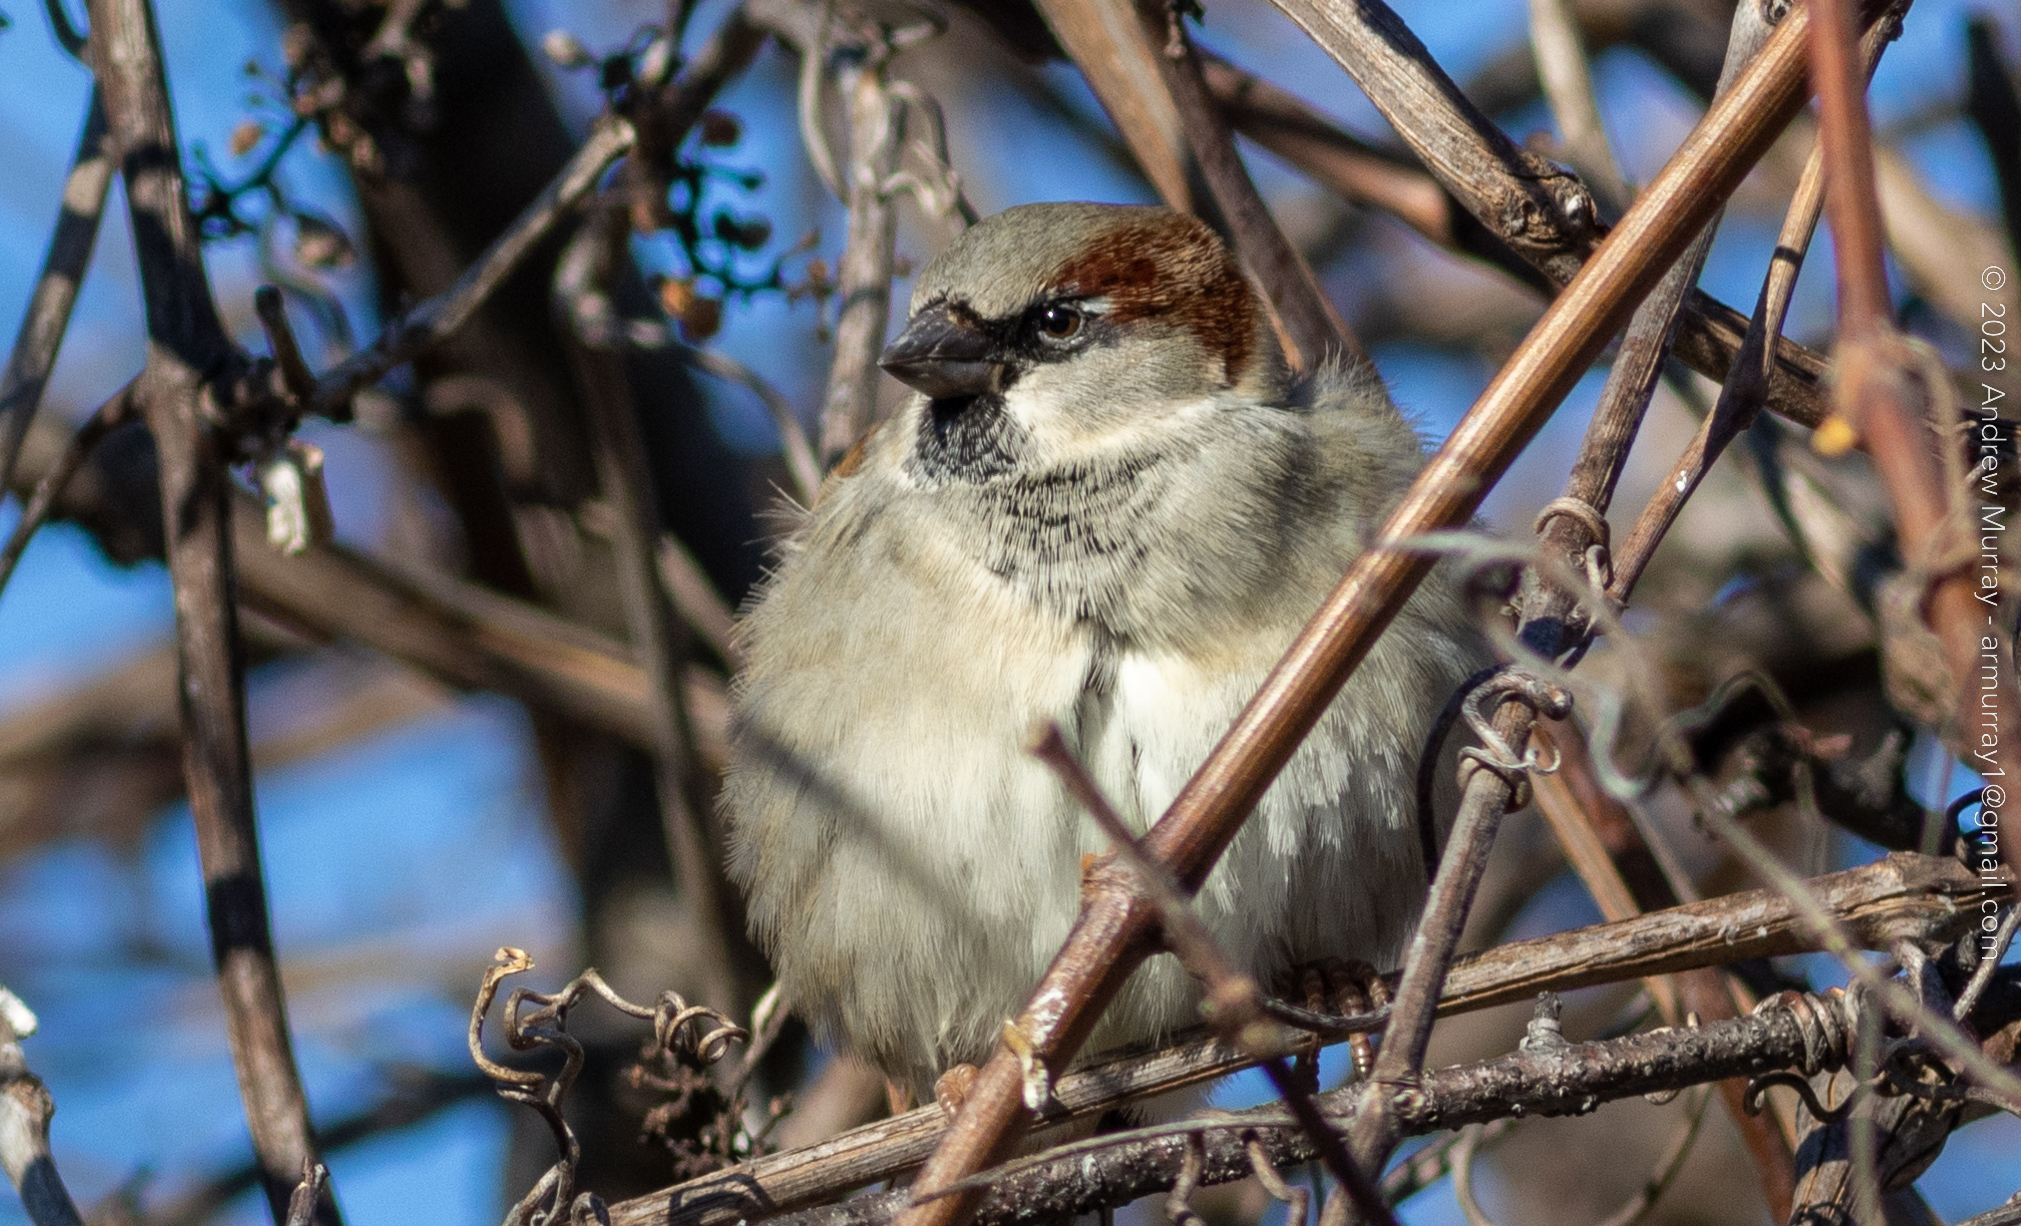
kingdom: Animalia
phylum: Chordata
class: Aves
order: Passeriformes
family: Passeridae
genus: Passer
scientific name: Passer domesticus
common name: House sparrow
